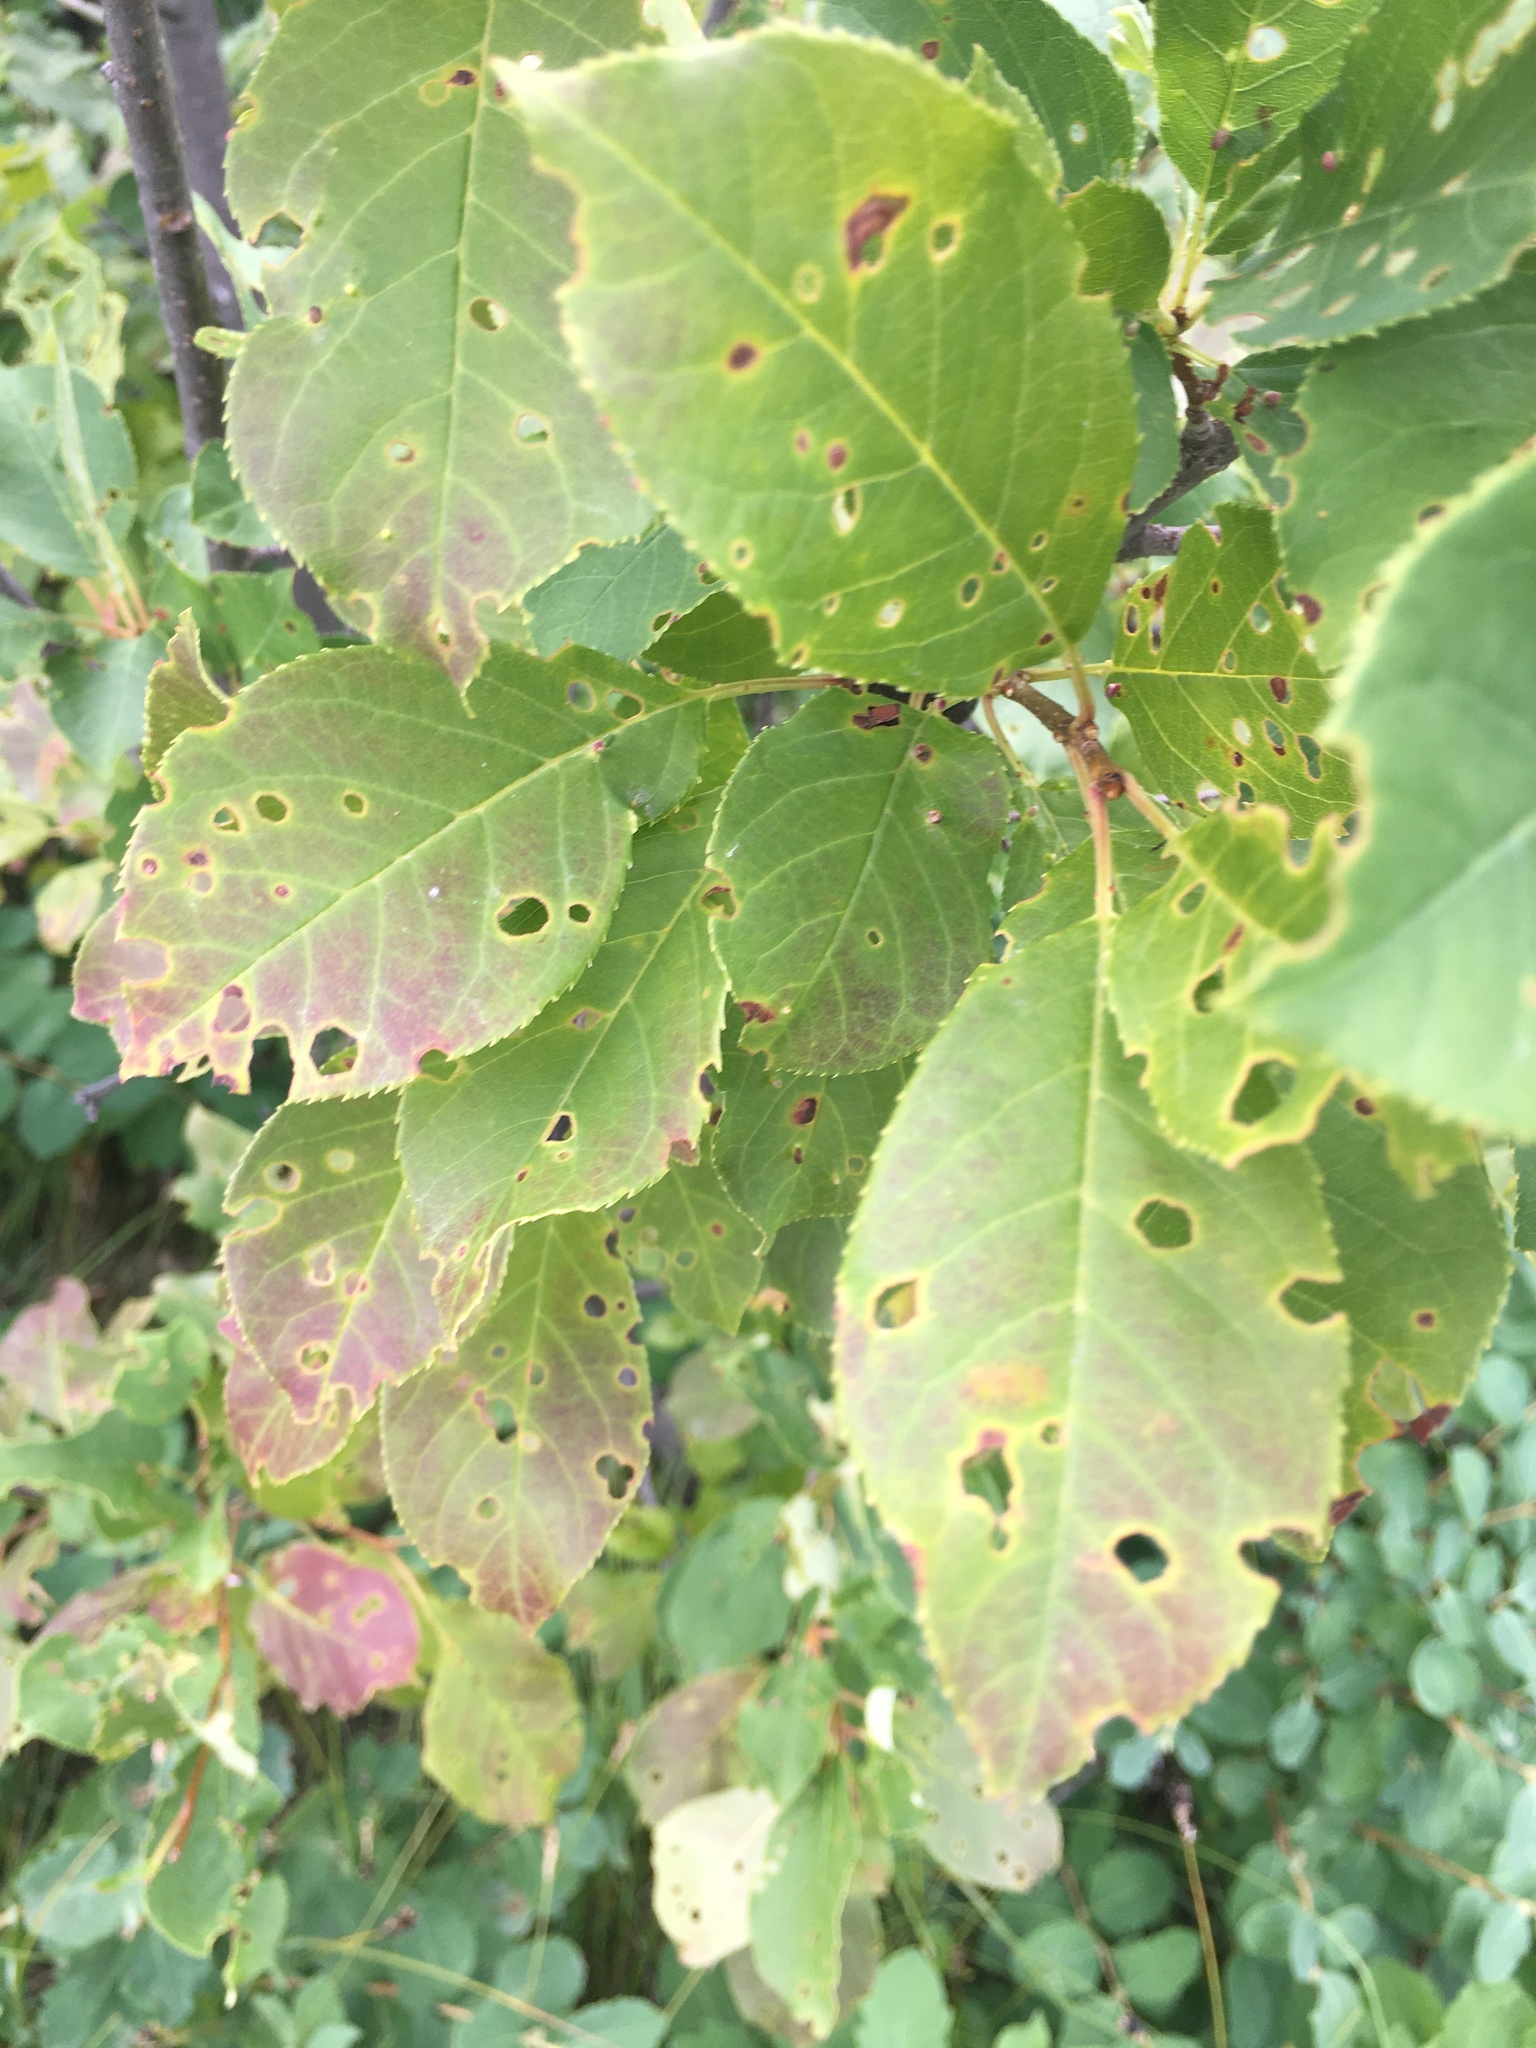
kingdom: Plantae
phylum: Tracheophyta
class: Magnoliopsida
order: Rosales
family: Rosaceae
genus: Prunus
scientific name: Prunus virginiana
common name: Chokecherry
